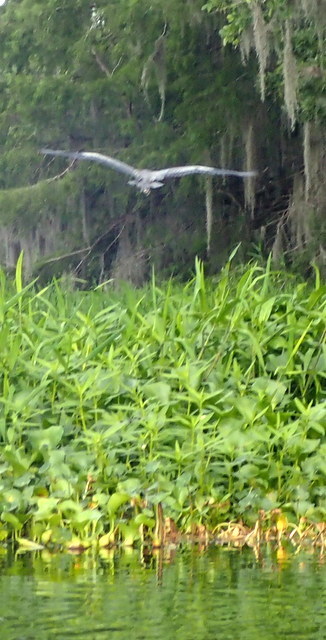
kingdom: Animalia
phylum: Chordata
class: Aves
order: Pelecaniformes
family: Ardeidae
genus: Ardea
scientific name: Ardea herodias
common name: Great blue heron
